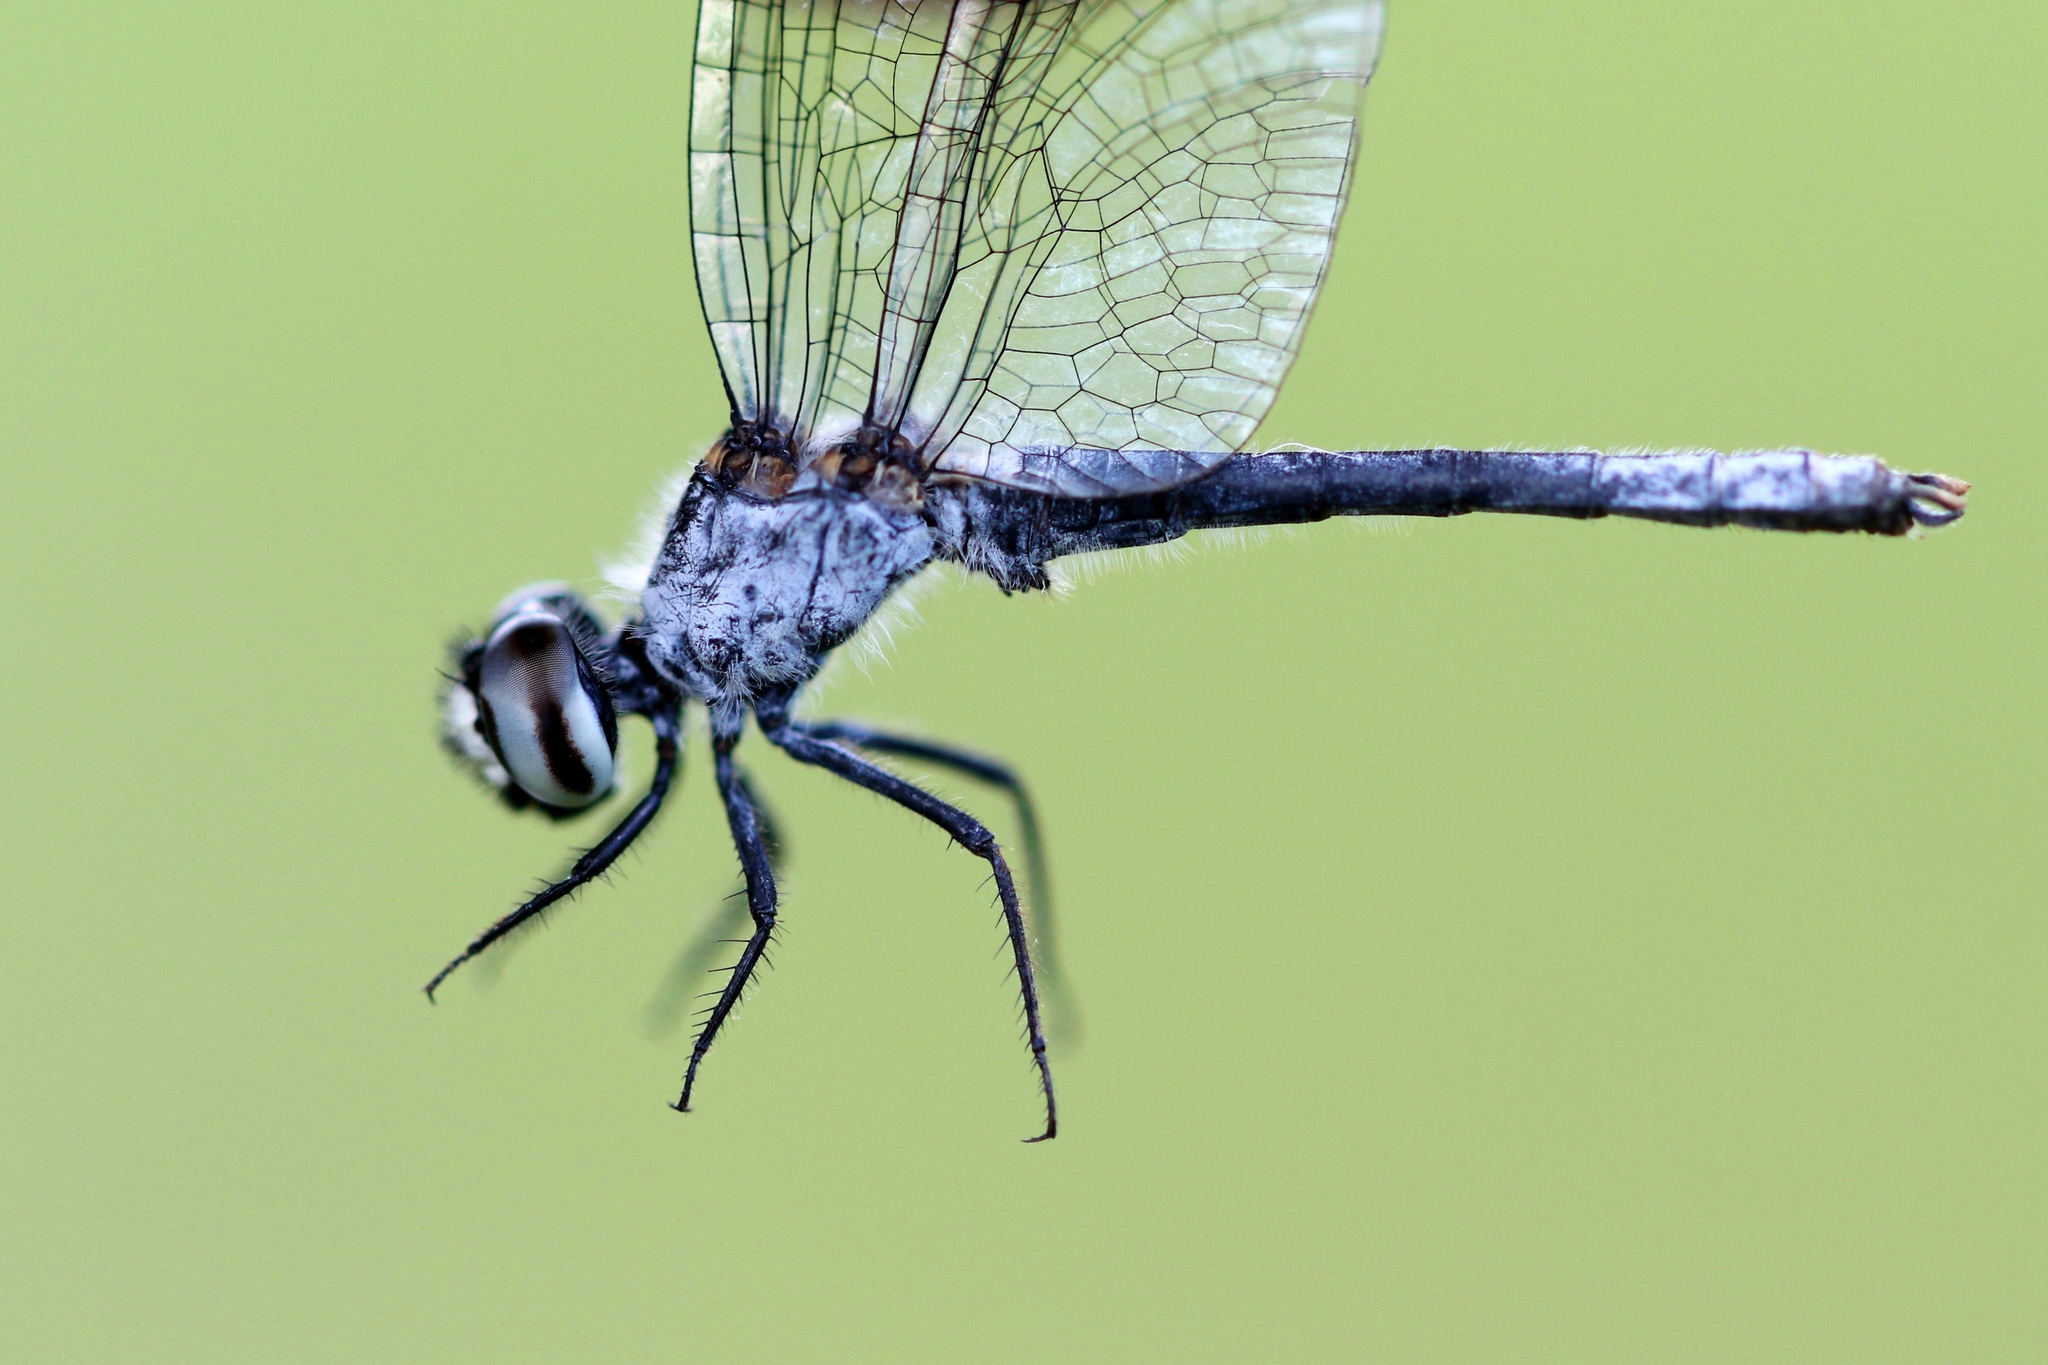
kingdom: Animalia
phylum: Arthropoda
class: Insecta
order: Odonata
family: Libellulidae
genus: Nannothemis
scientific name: Nannothemis bella
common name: Elfin skimmer
